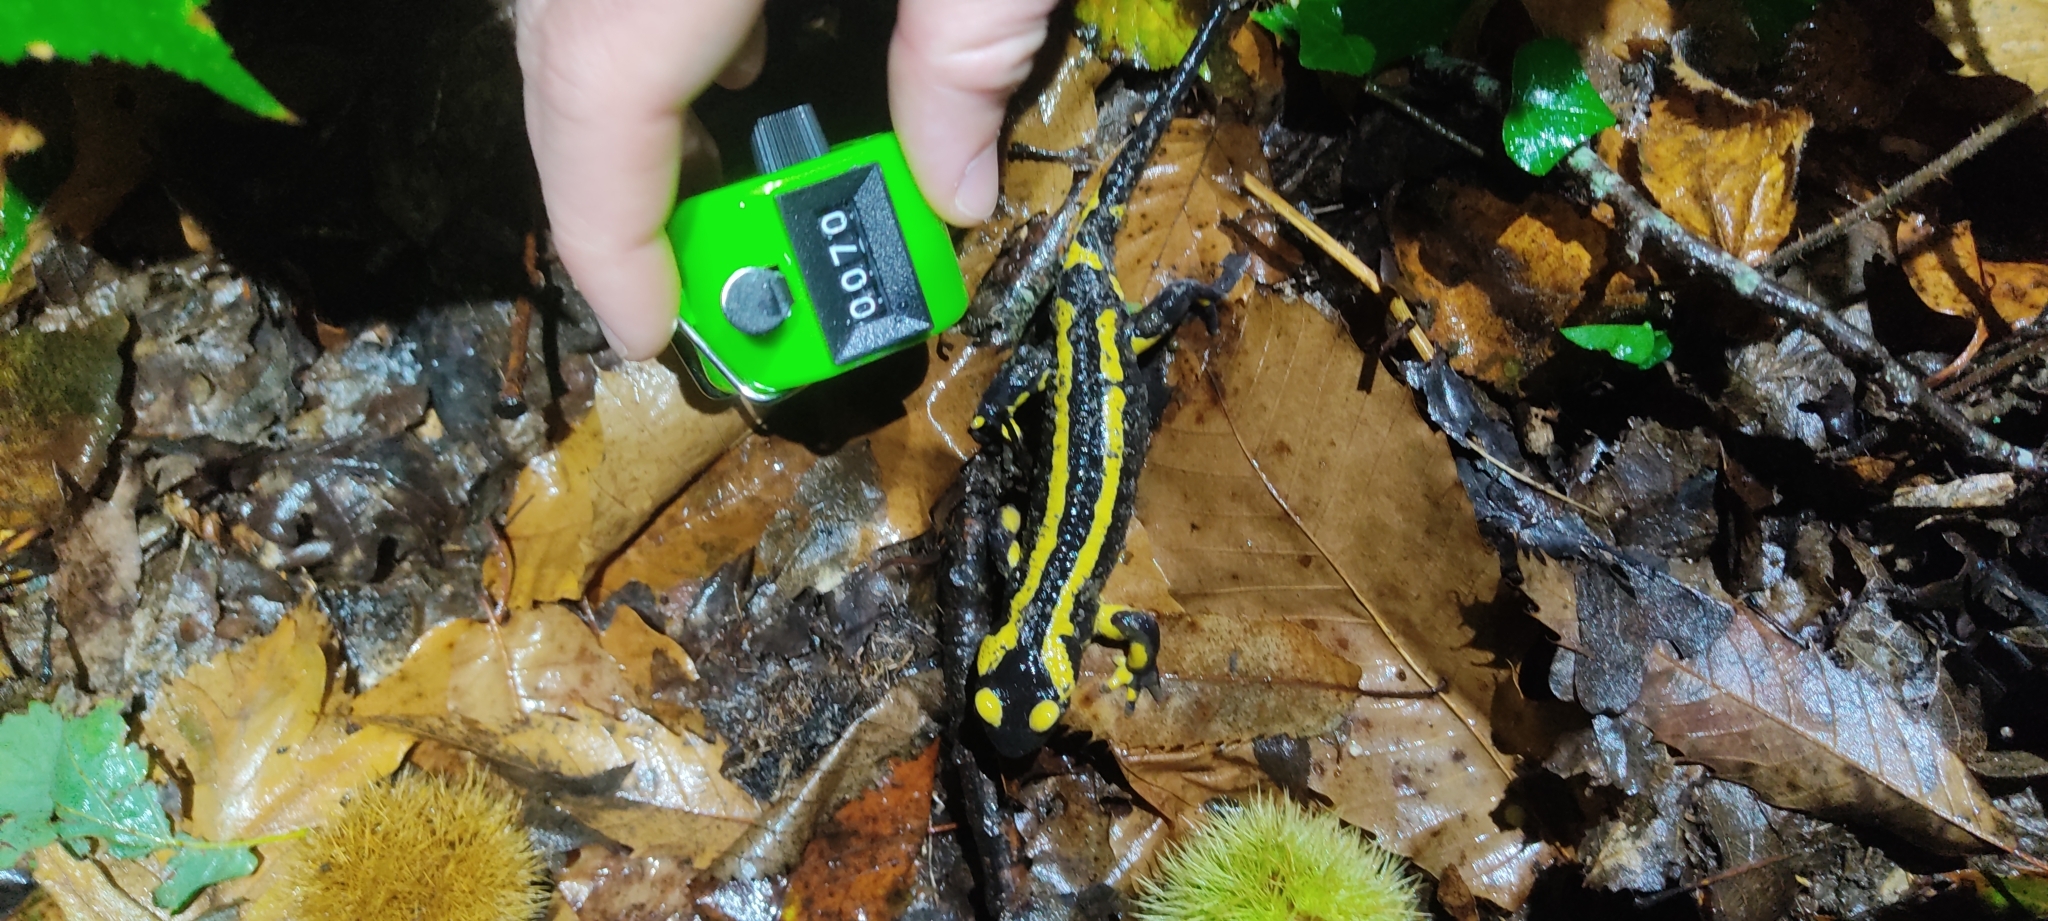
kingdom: Animalia
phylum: Chordata
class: Amphibia
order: Caudata
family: Salamandridae
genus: Salamandra
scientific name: Salamandra salamandra
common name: Fire salamander
